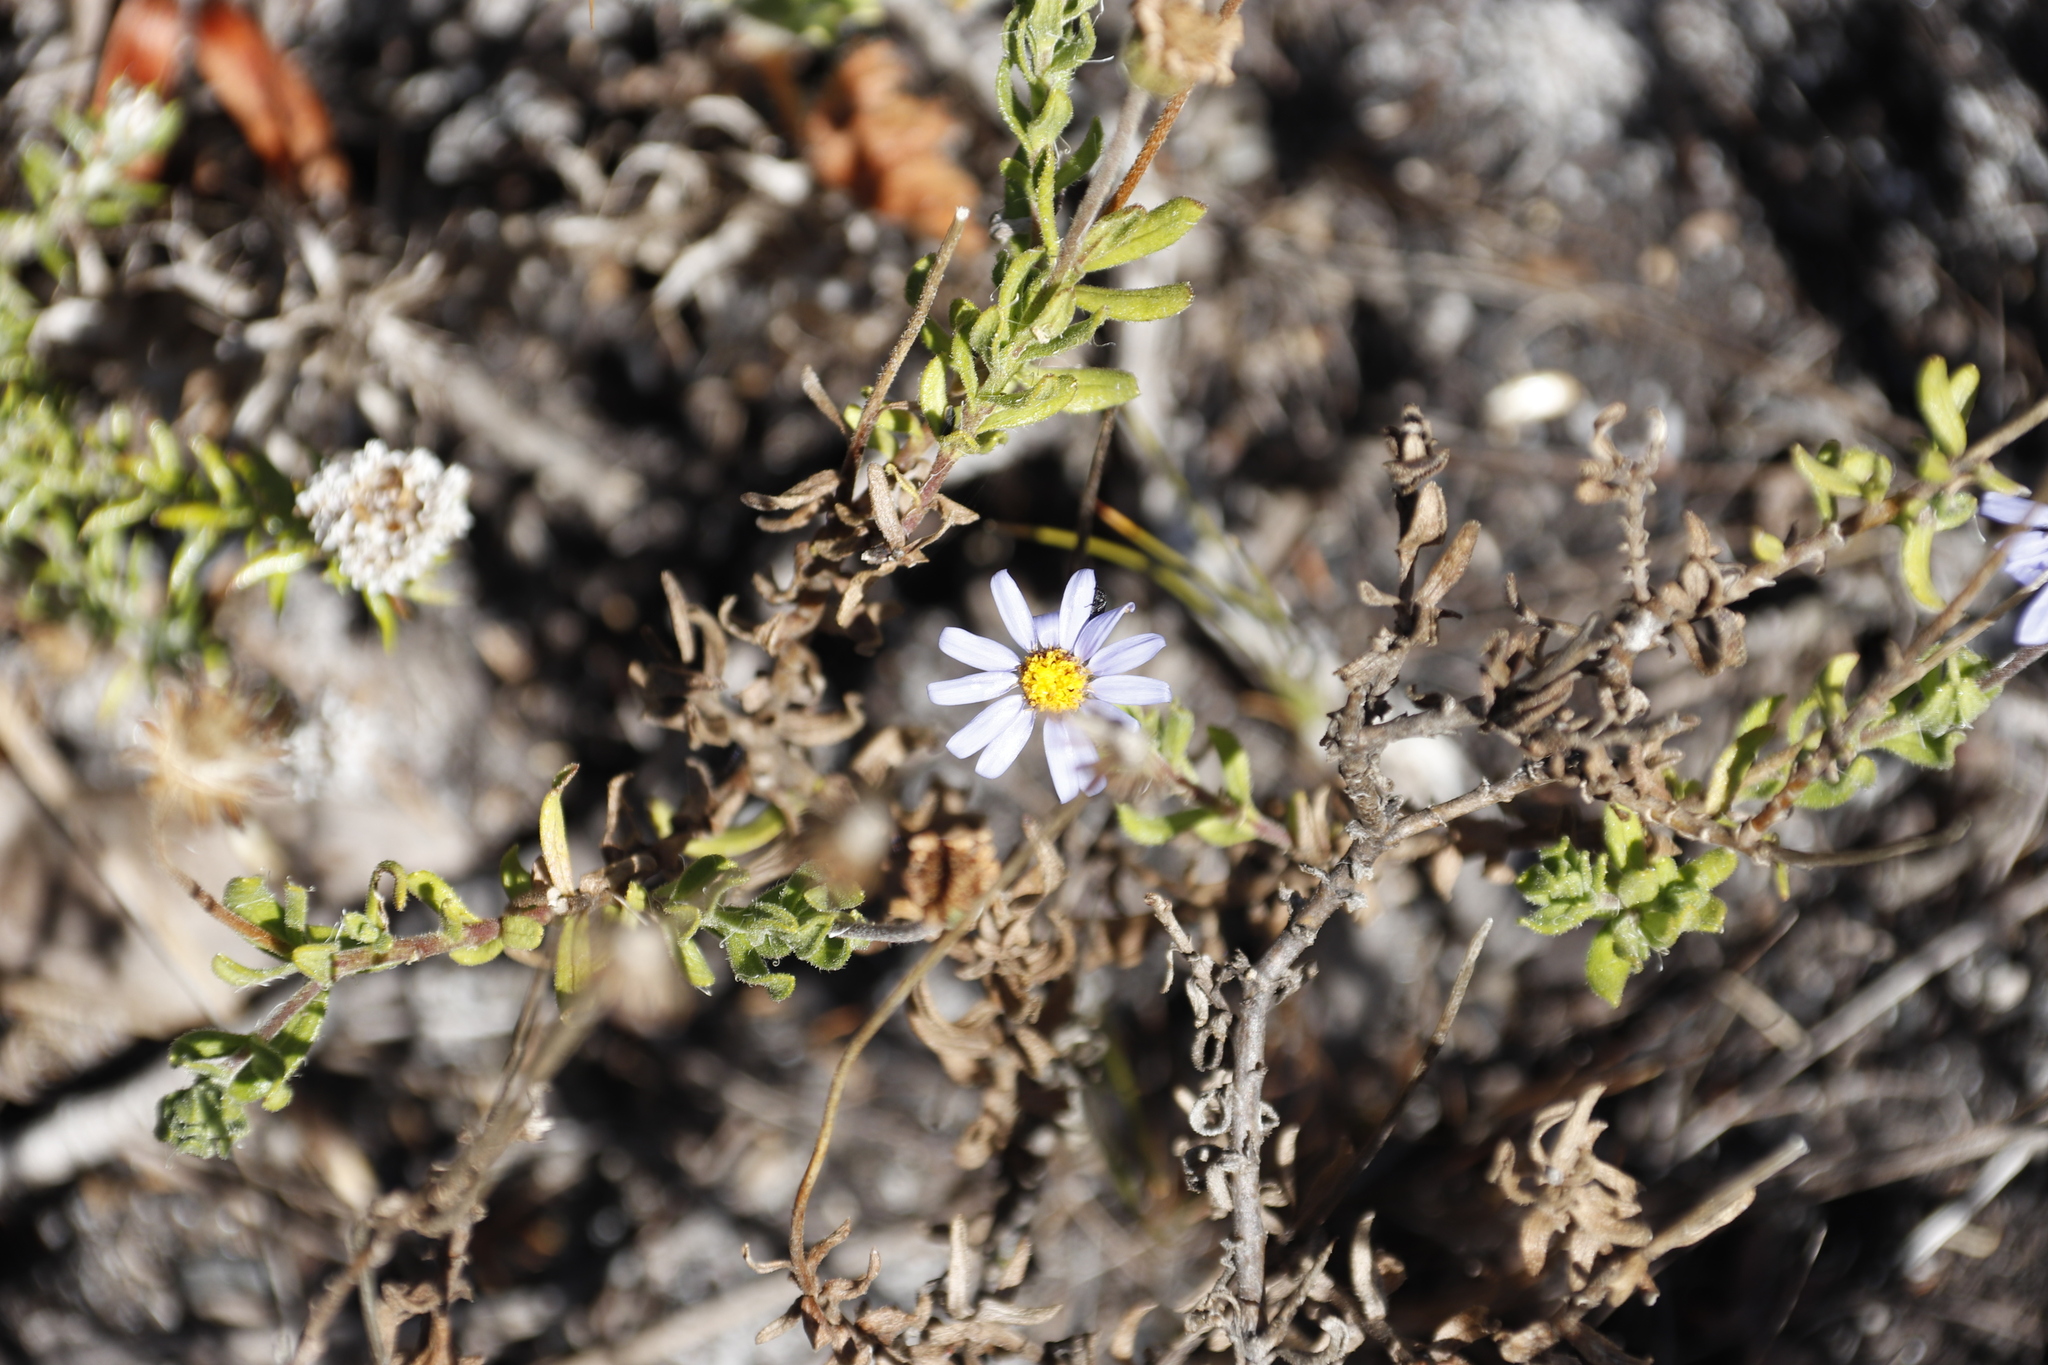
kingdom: Plantae
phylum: Tracheophyta
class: Magnoliopsida
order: Asterales
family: Asteraceae
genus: Felicia
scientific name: Felicia aethiopica
